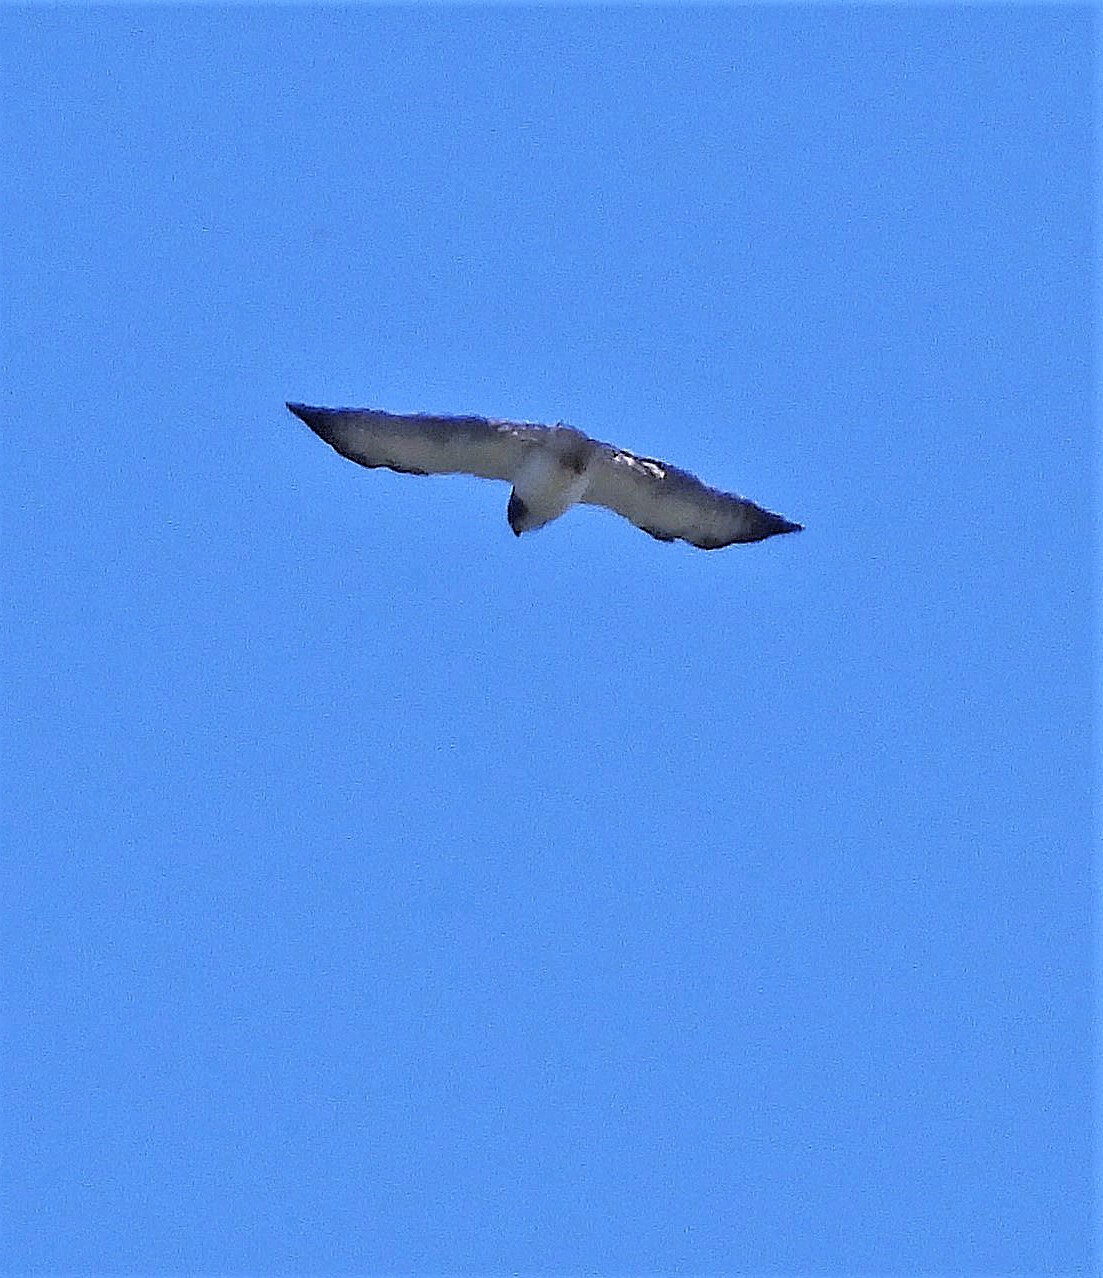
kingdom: Animalia
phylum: Chordata
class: Aves
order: Accipitriformes
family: Accipitridae
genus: Buteo
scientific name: Buteo brachyurus
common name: Short-tailed hawk
